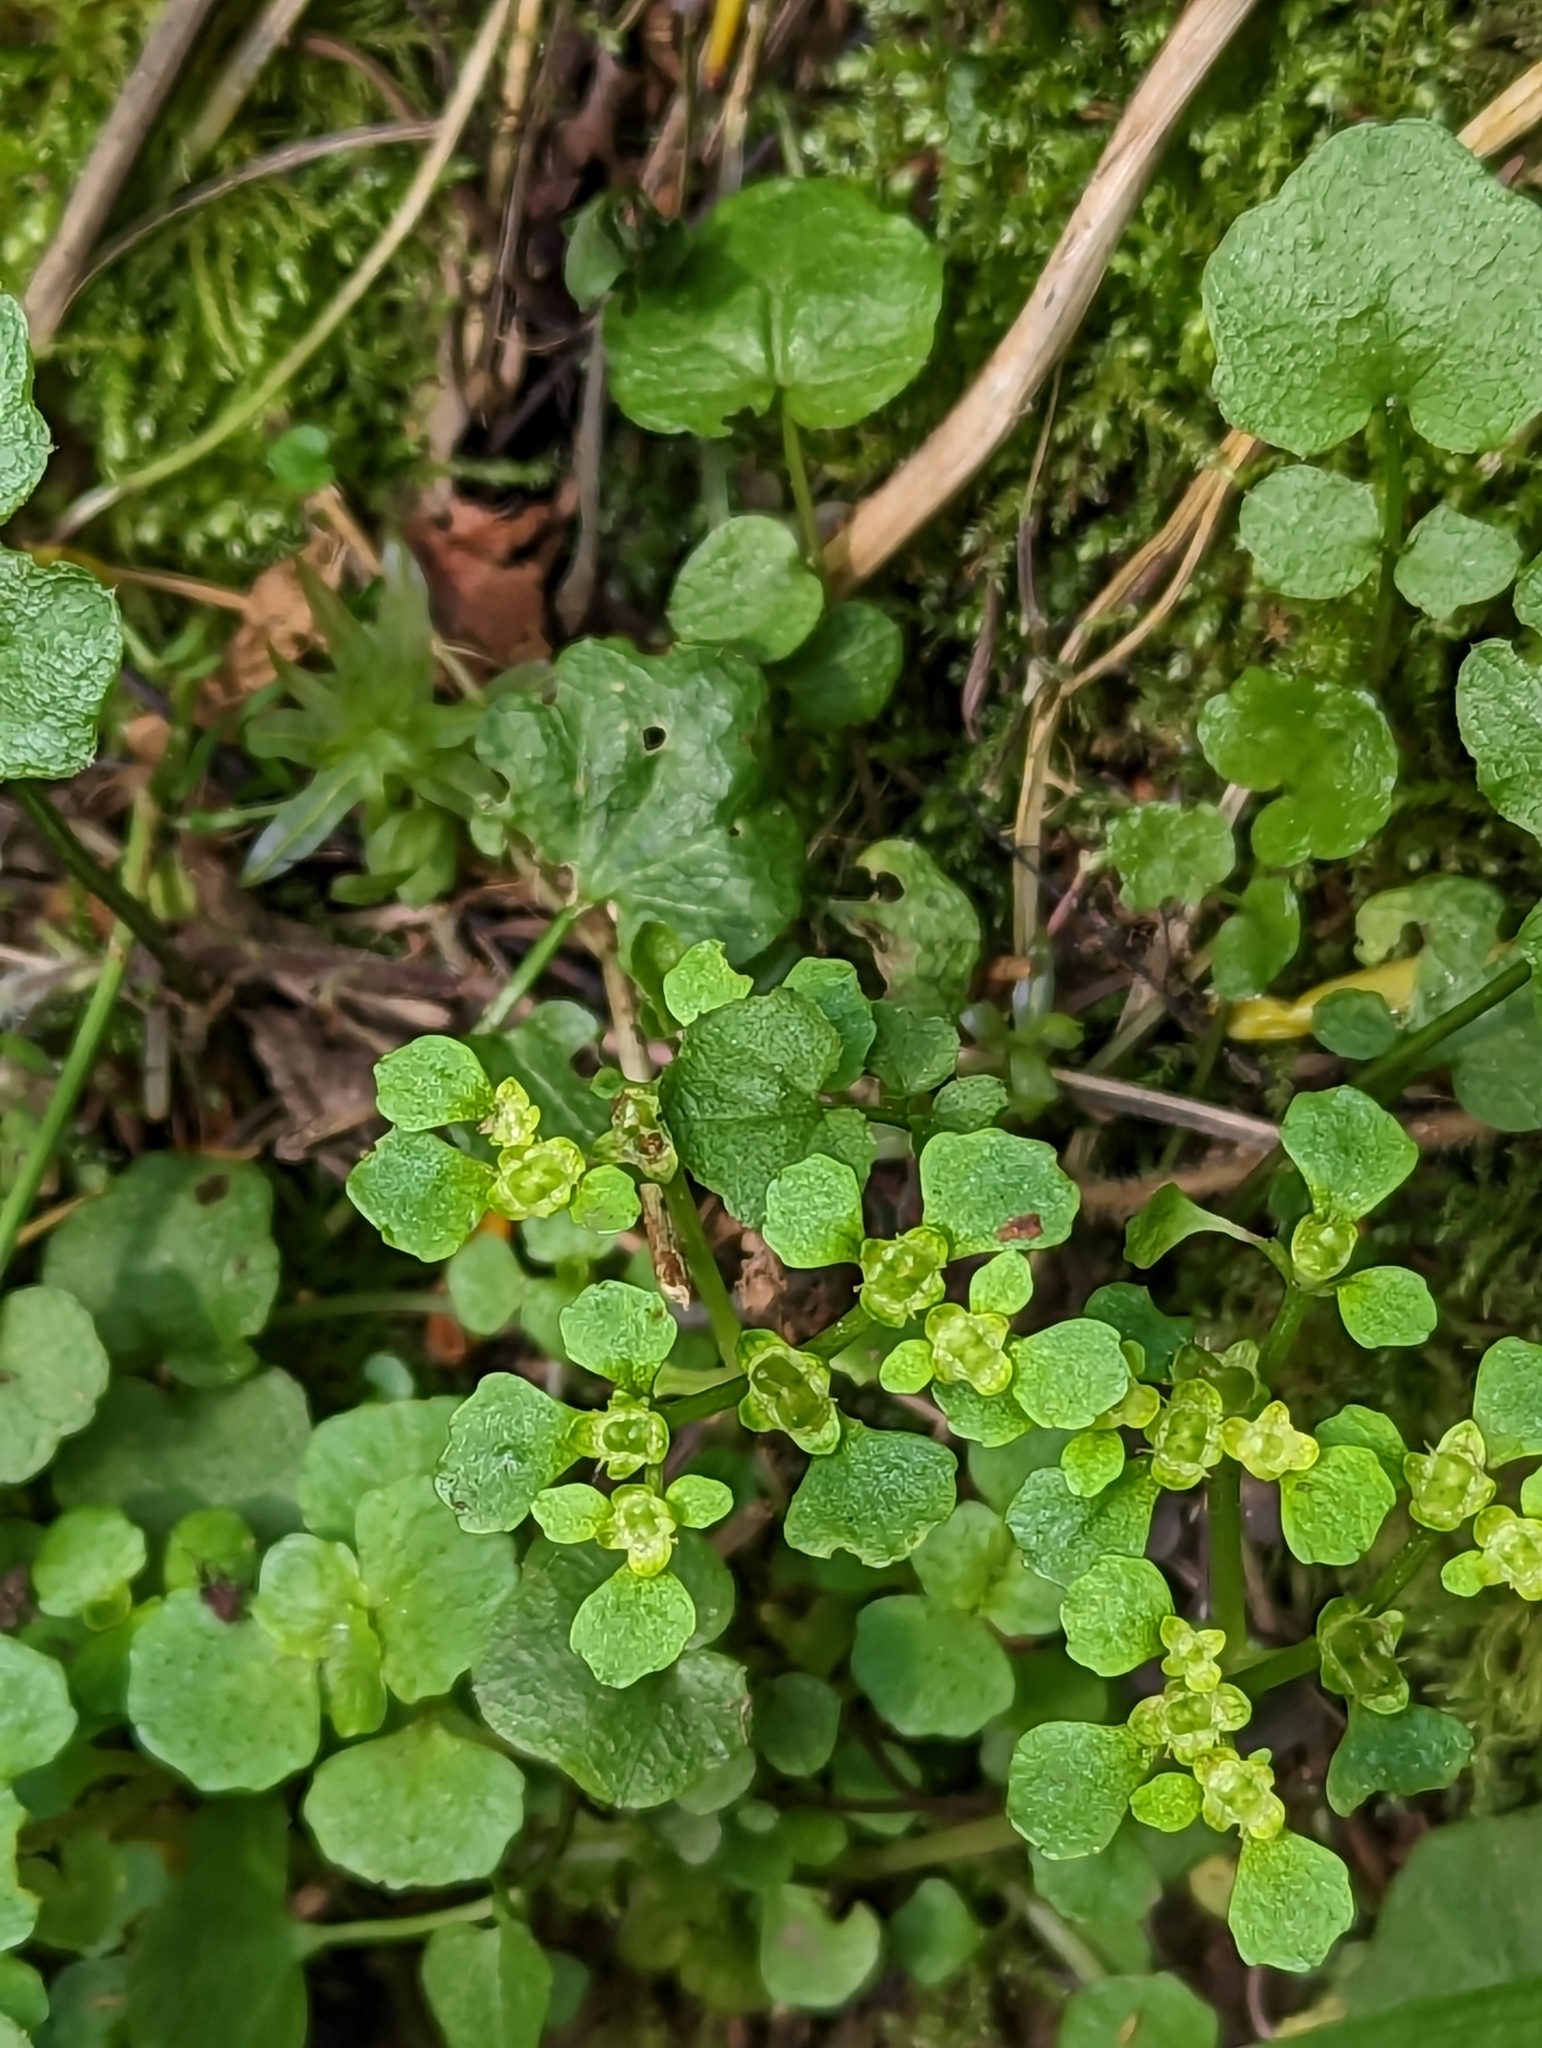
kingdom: Plantae
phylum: Tracheophyta
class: Magnoliopsida
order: Saxifragales
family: Saxifragaceae
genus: Chrysosplenium
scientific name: Chrysosplenium oppositifolium
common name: Opposite-leaved golden-saxifrage
